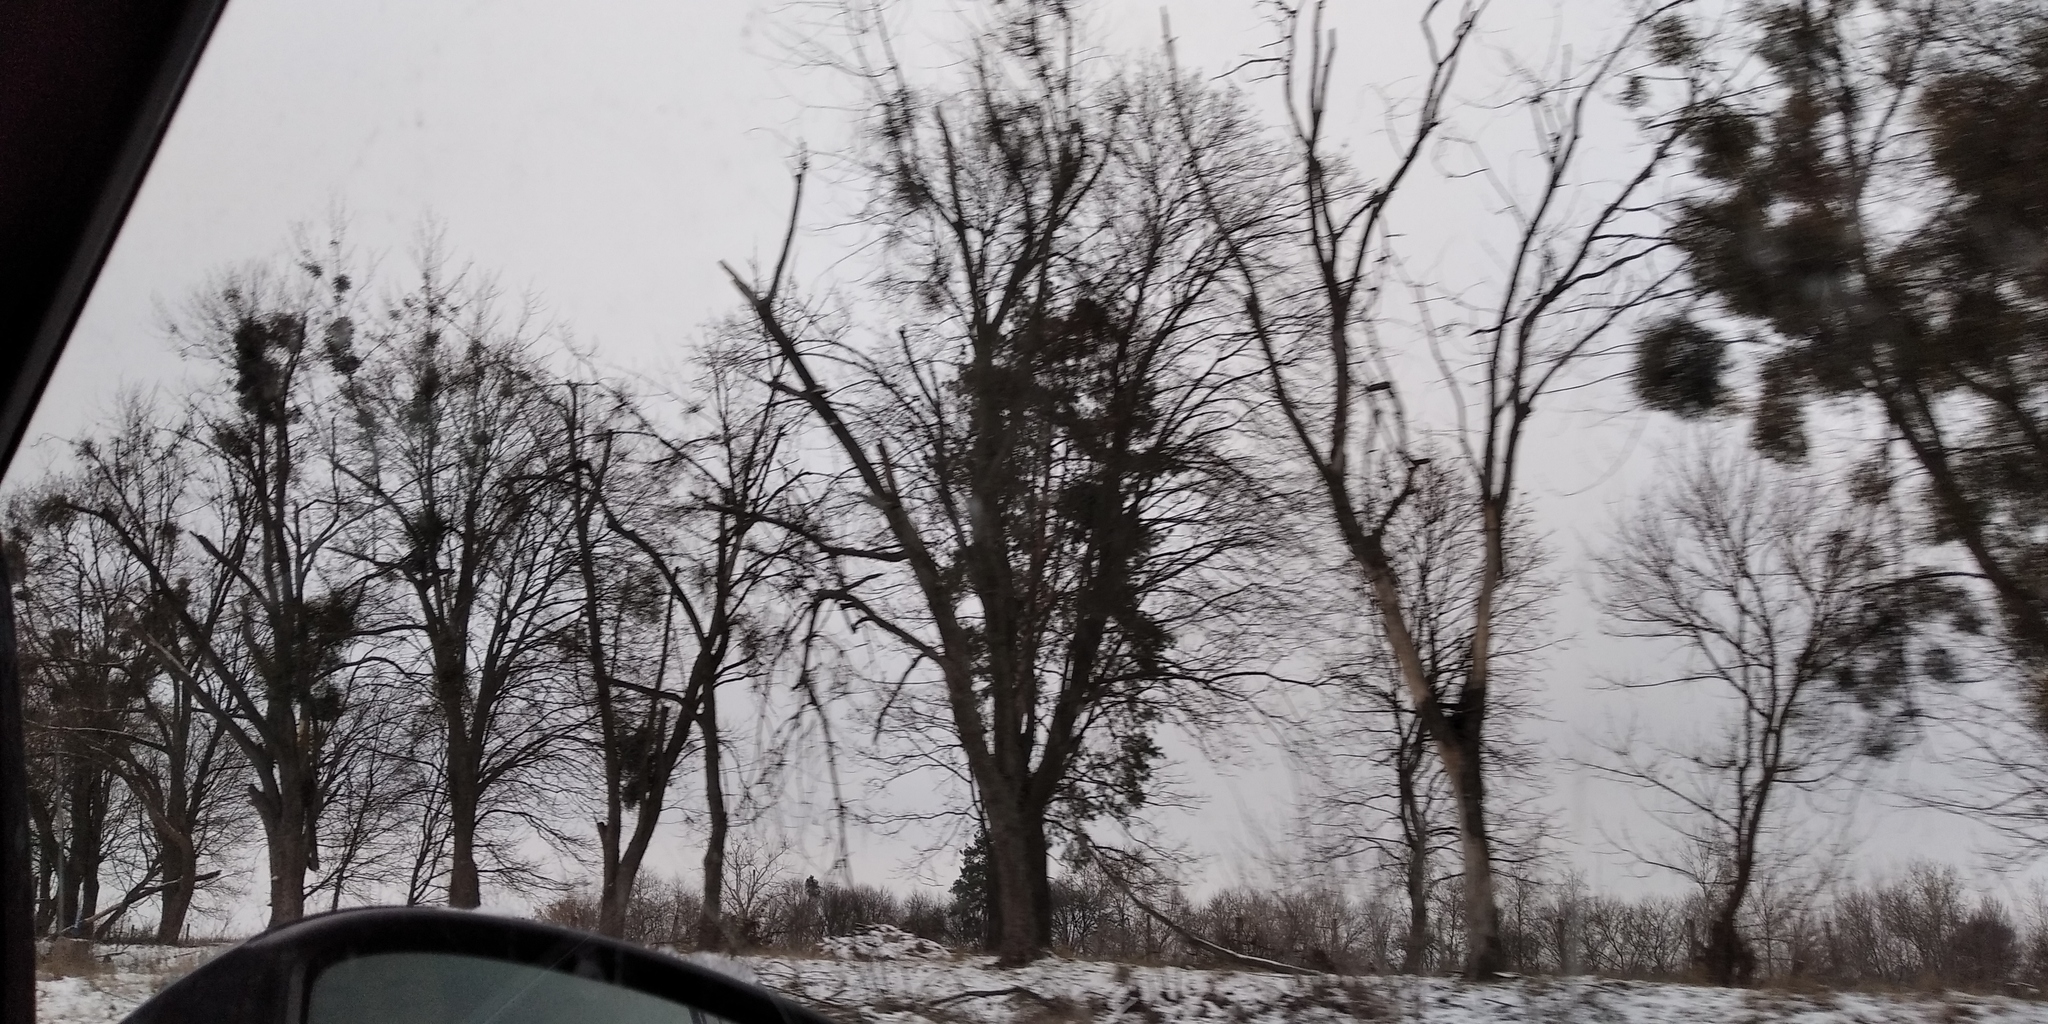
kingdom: Plantae
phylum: Tracheophyta
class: Magnoliopsida
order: Santalales
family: Viscaceae
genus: Viscum
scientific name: Viscum album
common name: Mistletoe
